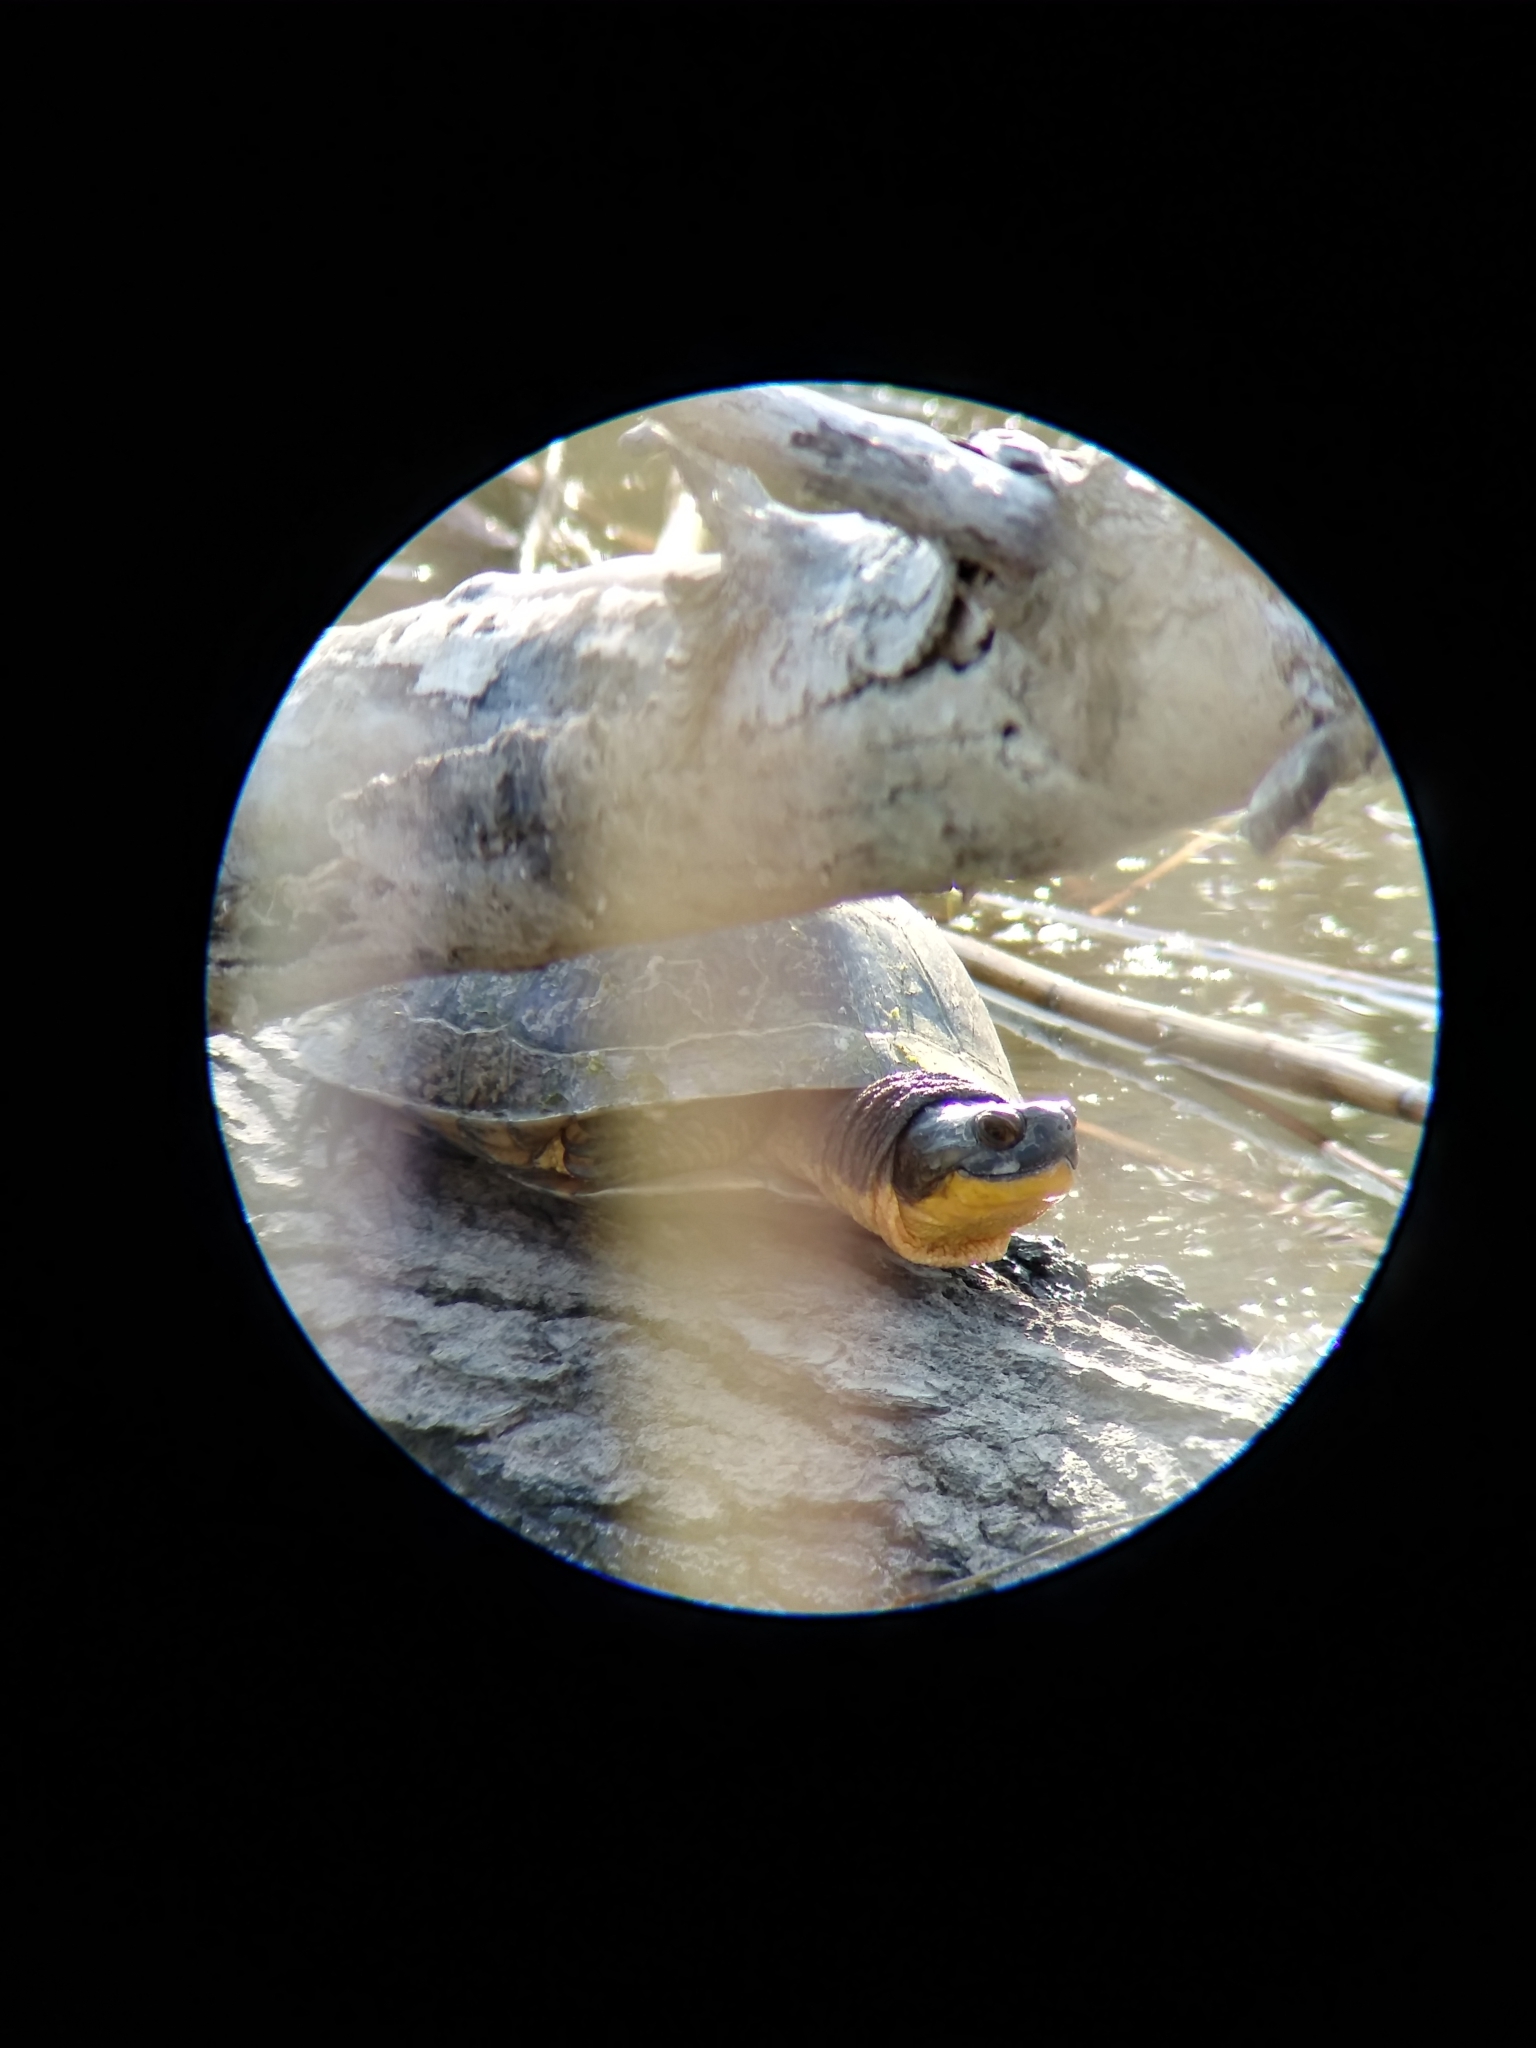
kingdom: Animalia
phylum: Chordata
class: Testudines
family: Emydidae
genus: Emys
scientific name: Emys blandingii
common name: Blanding's turtle
